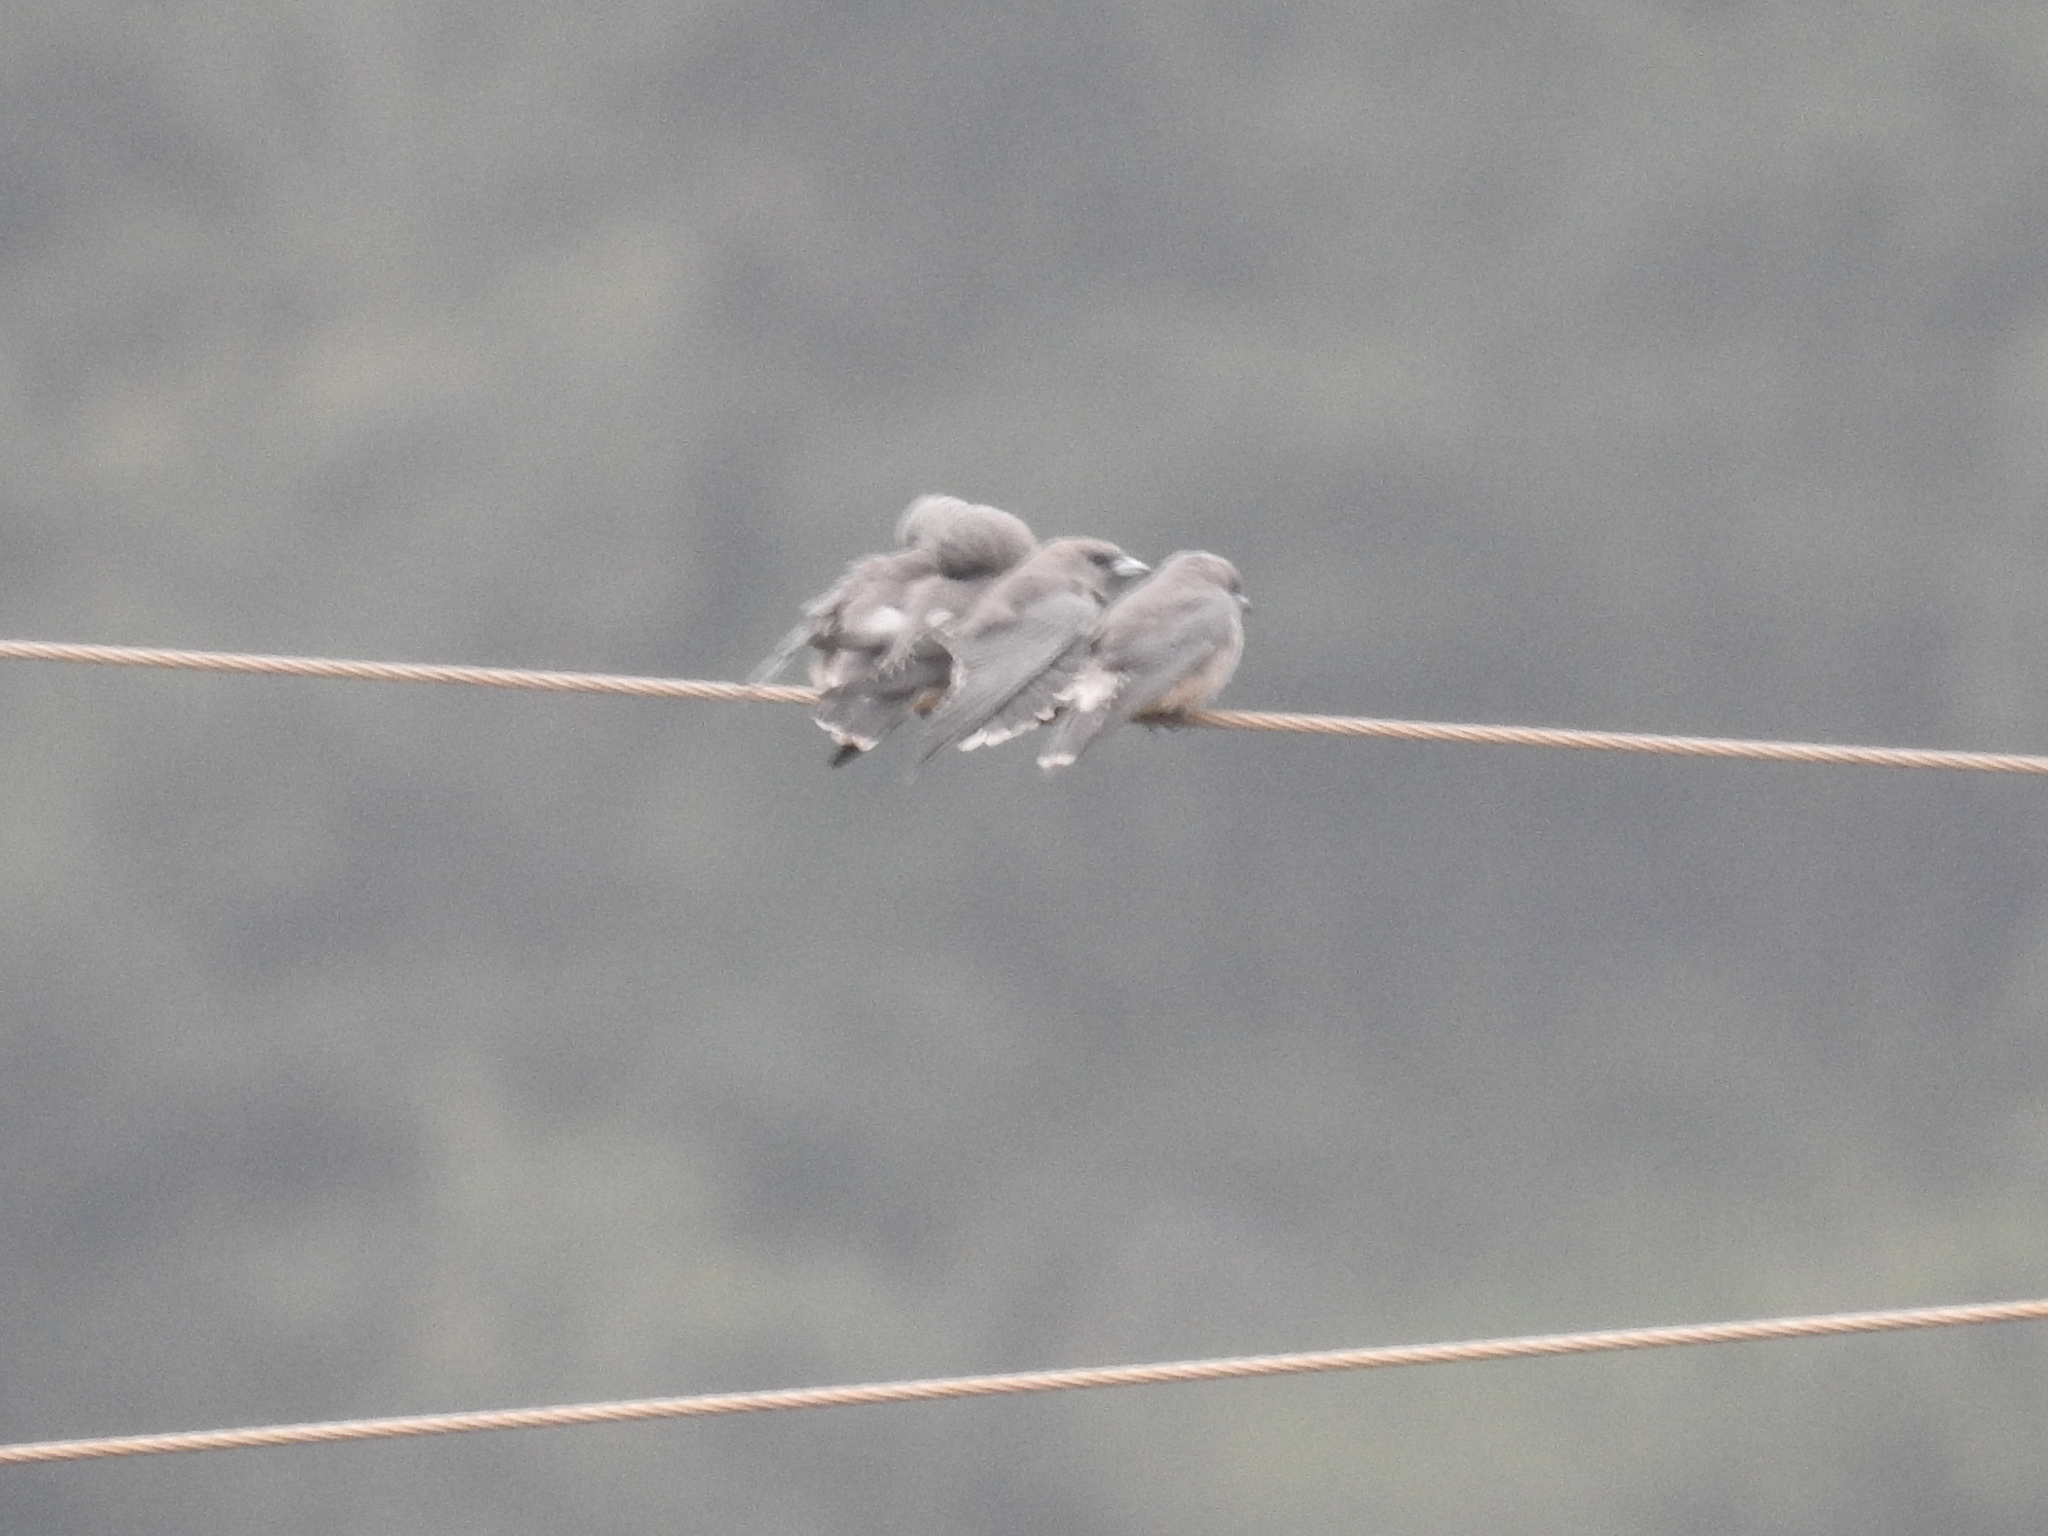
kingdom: Animalia
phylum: Chordata
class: Aves
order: Passeriformes
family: Artamidae
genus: Artamus
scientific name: Artamus fuscus
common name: Ashy woodswallow
